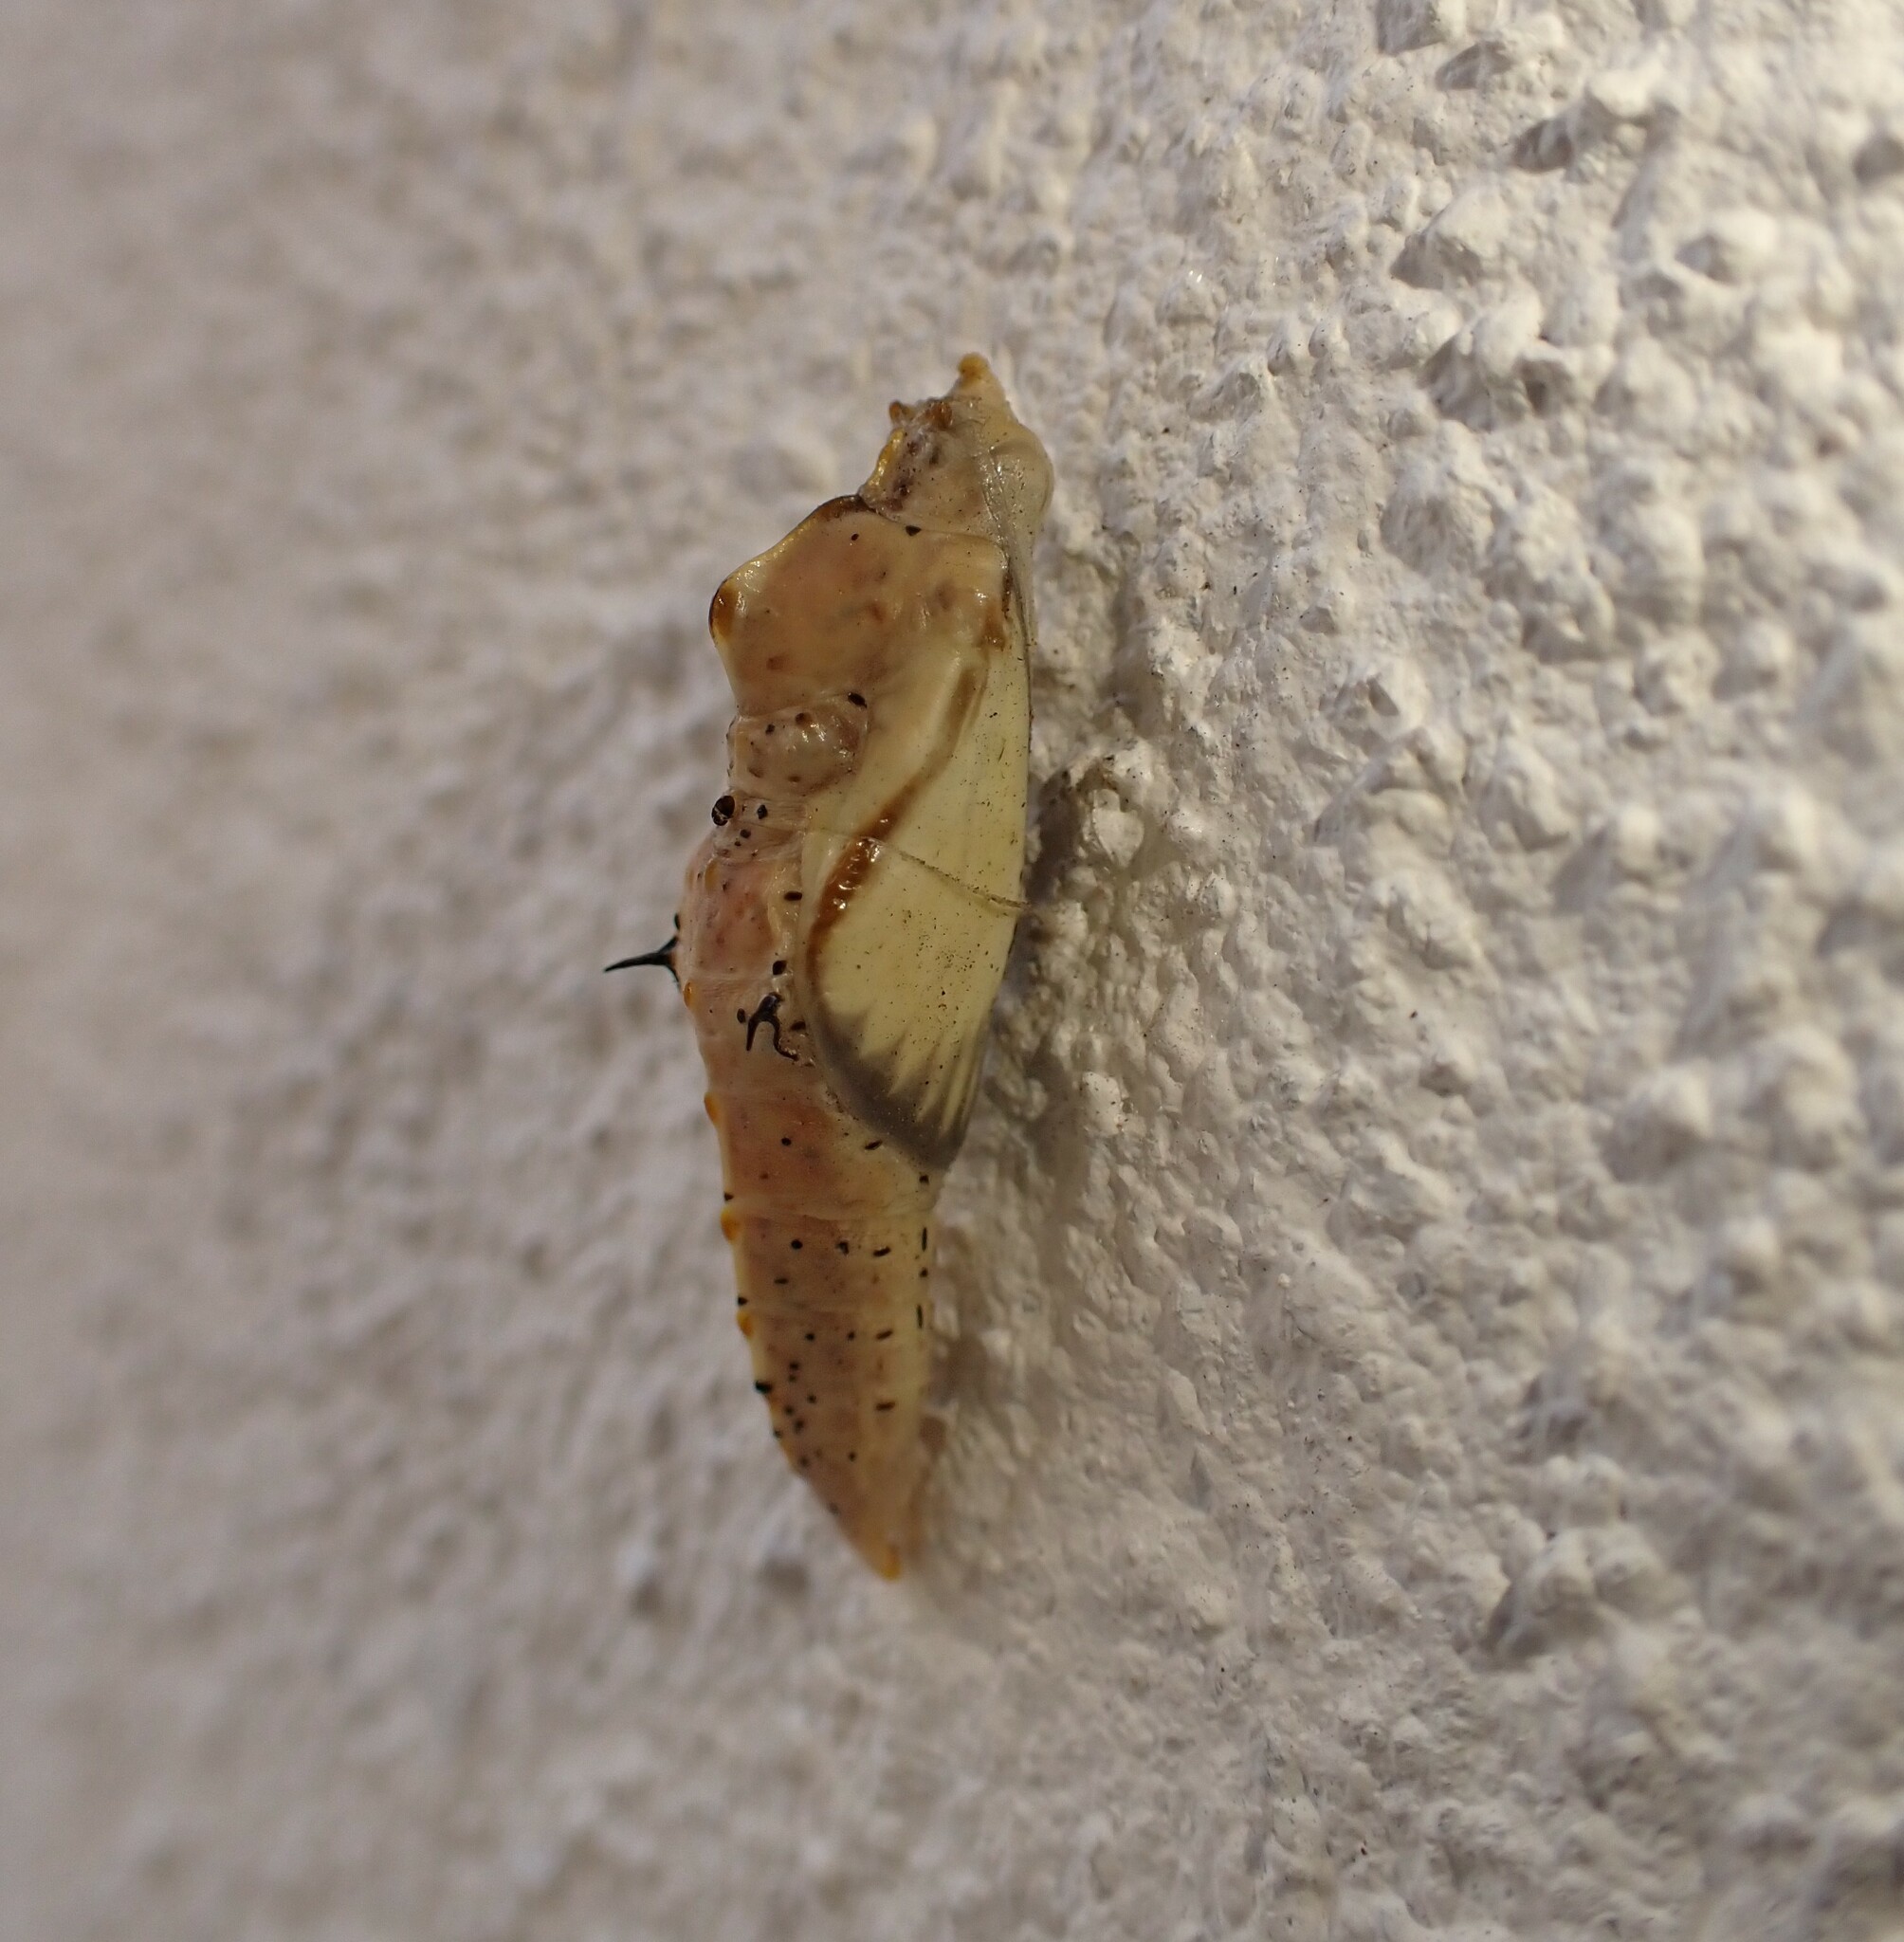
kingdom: Animalia
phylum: Arthropoda
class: Insecta
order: Lepidoptera
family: Pieridae
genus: Ascia
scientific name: Ascia monuste
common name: Great southern white
